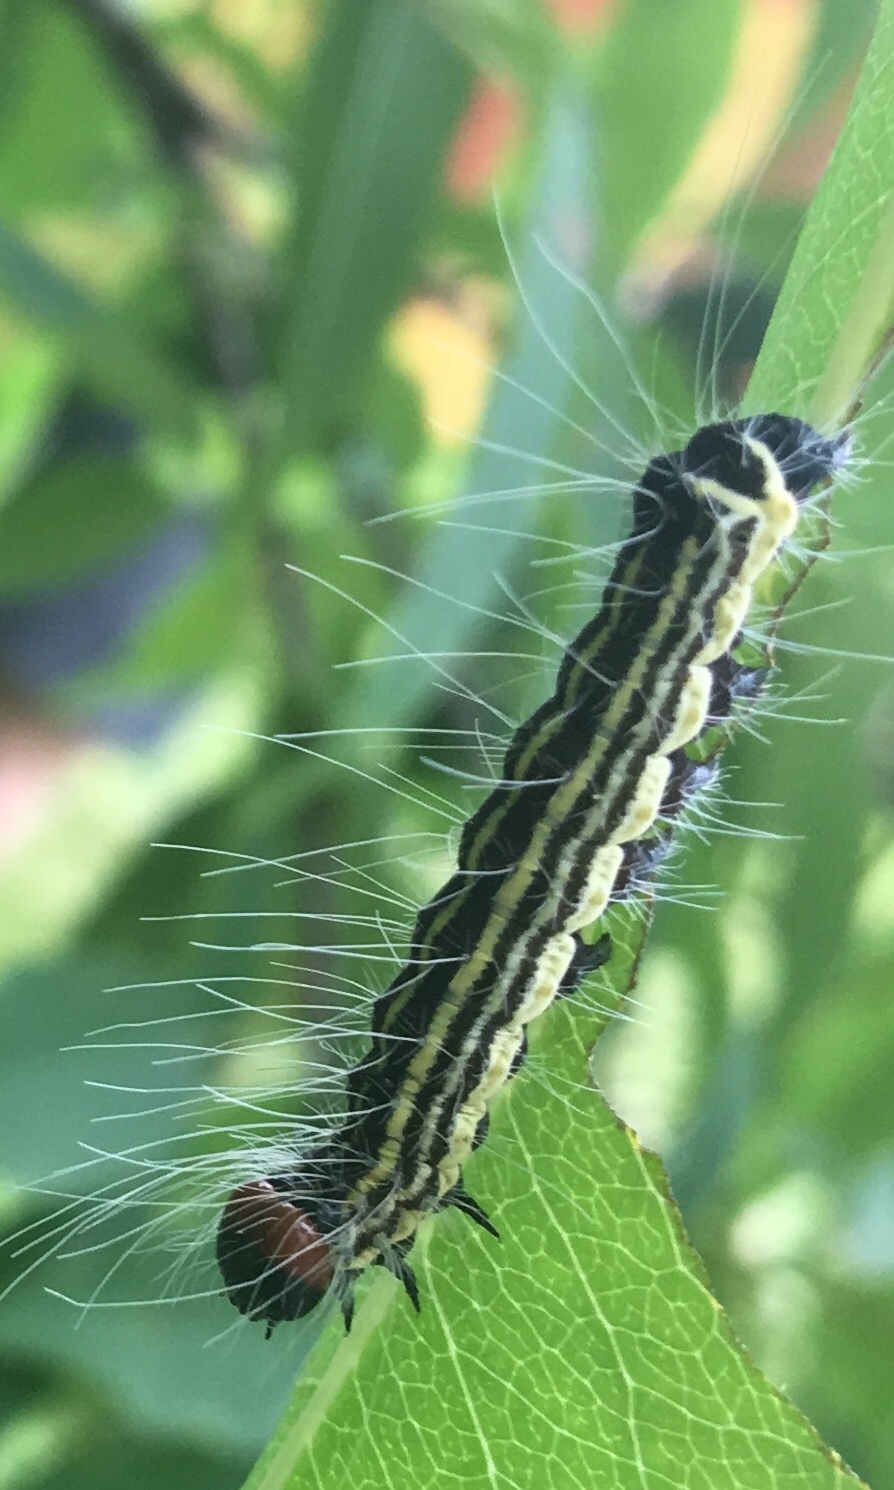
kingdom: Animalia
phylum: Arthropoda
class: Insecta
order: Lepidoptera
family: Noctuidae
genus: Acronicta
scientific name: Acronicta radcliffei
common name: Radcliffe's dagger
